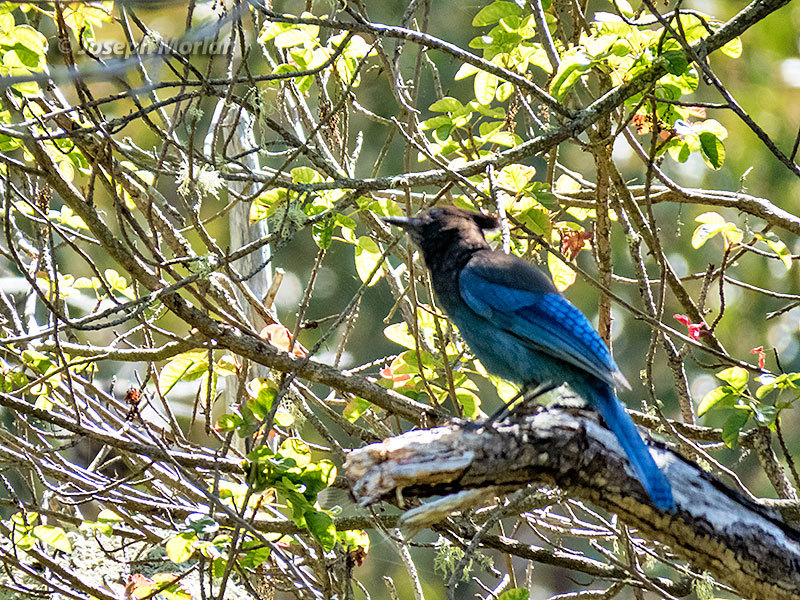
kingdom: Animalia
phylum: Chordata
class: Aves
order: Passeriformes
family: Corvidae
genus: Cyanocitta
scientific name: Cyanocitta stelleri
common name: Steller's jay
